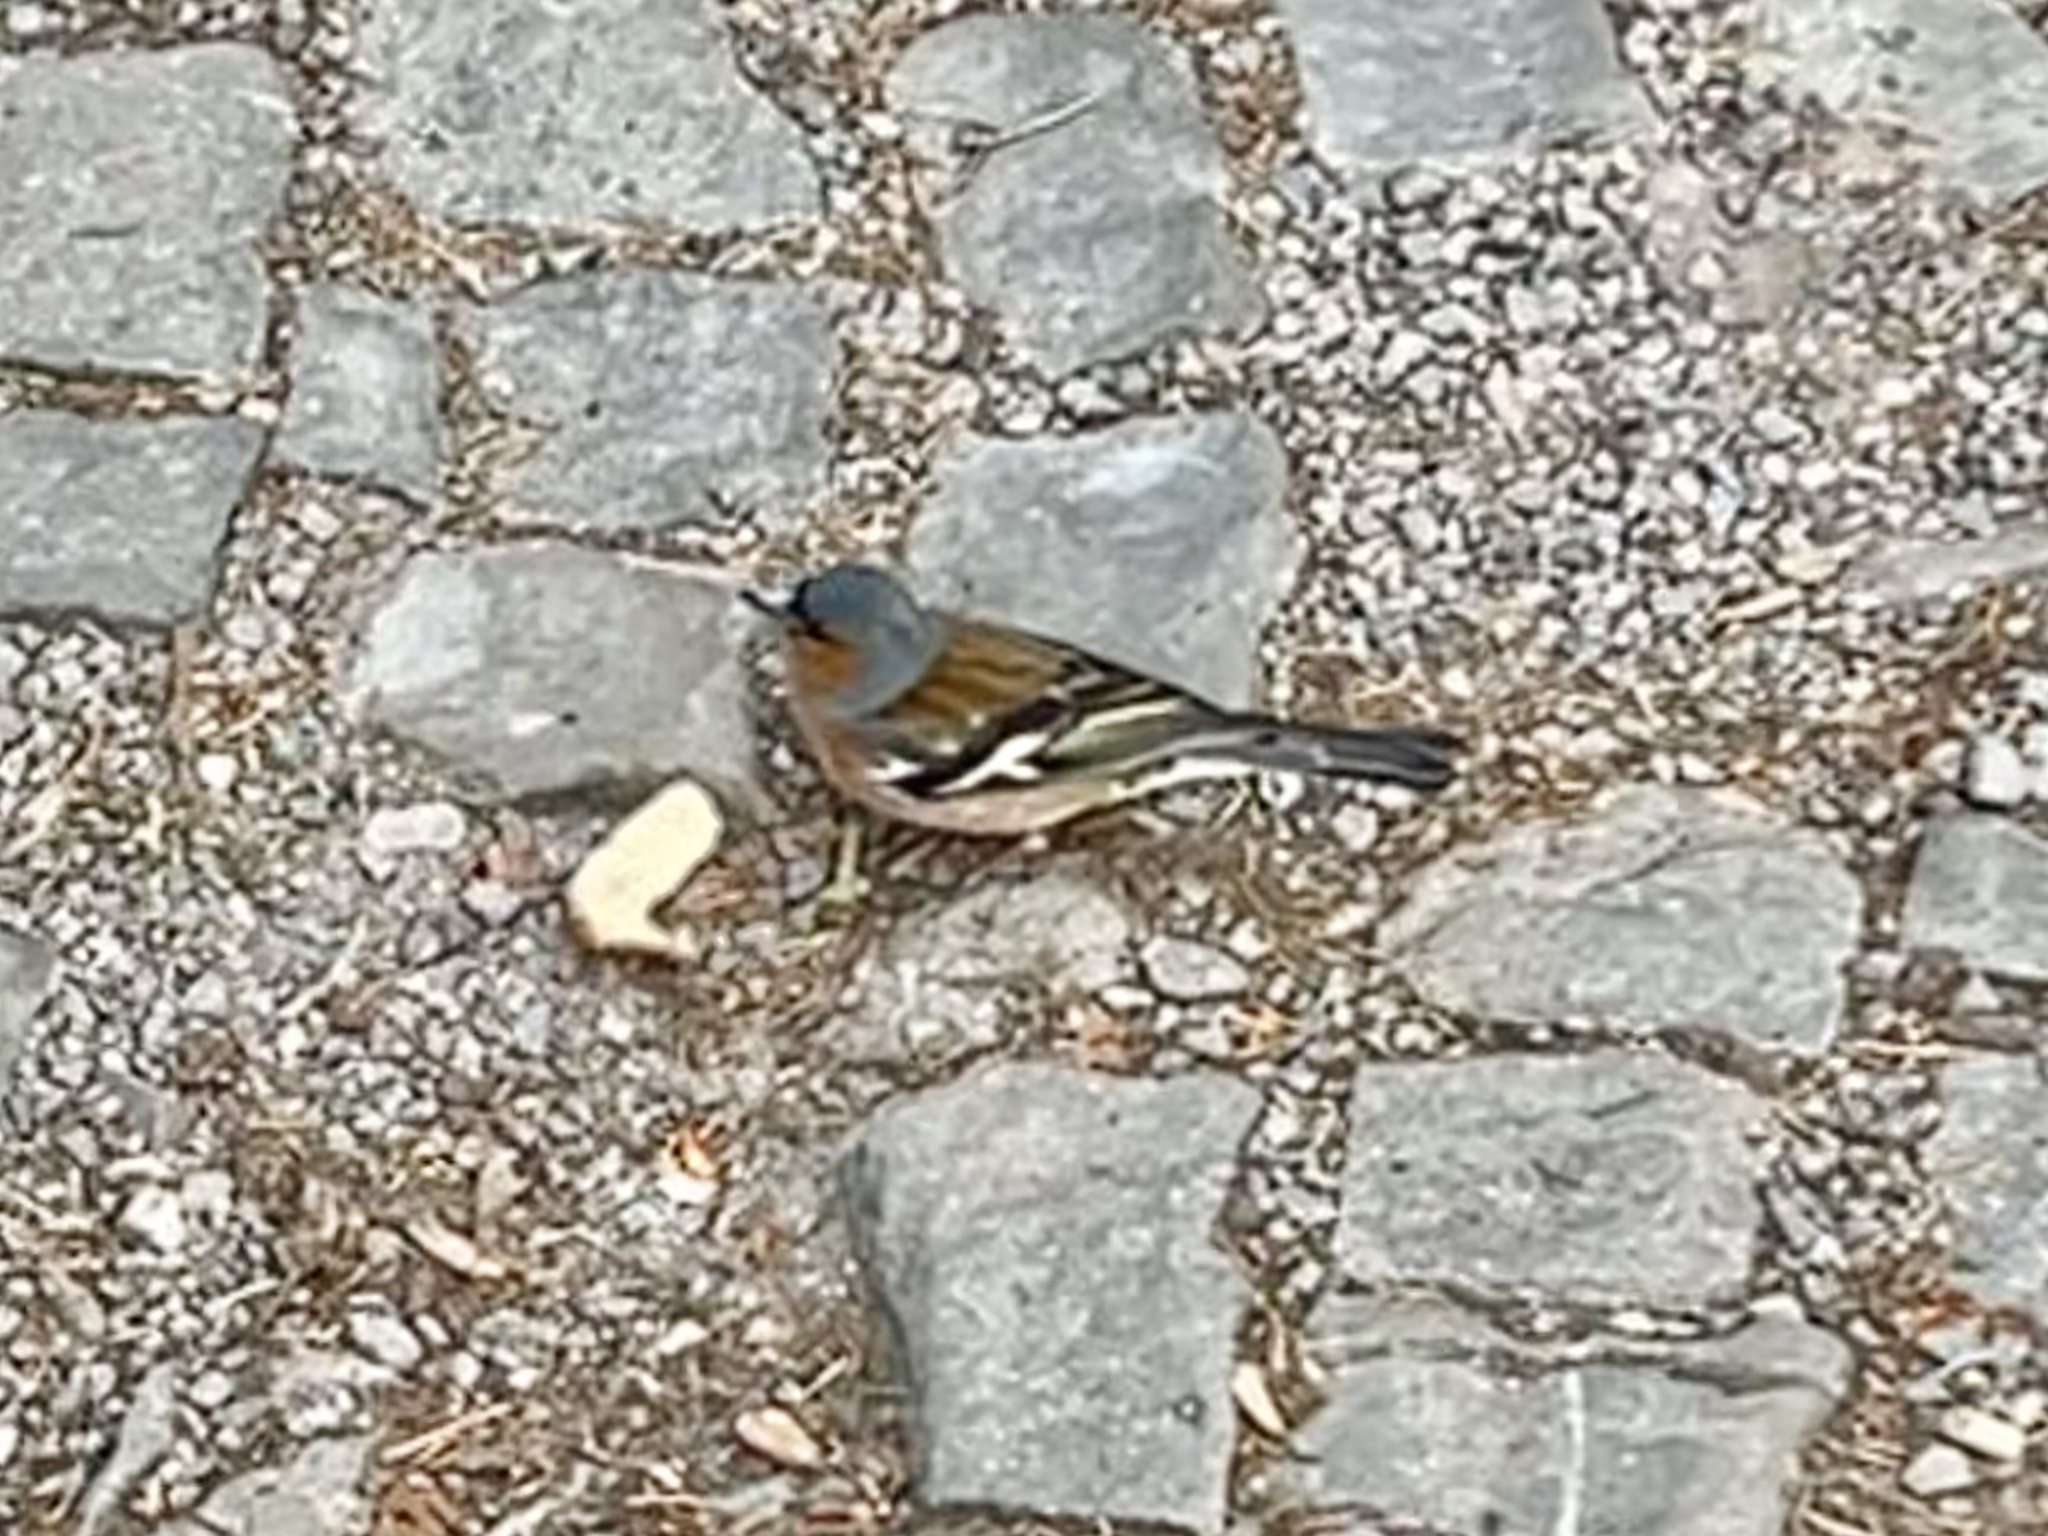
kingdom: Animalia
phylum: Chordata
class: Aves
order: Passeriformes
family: Fringillidae
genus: Fringilla
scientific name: Fringilla coelebs
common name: Common chaffinch
